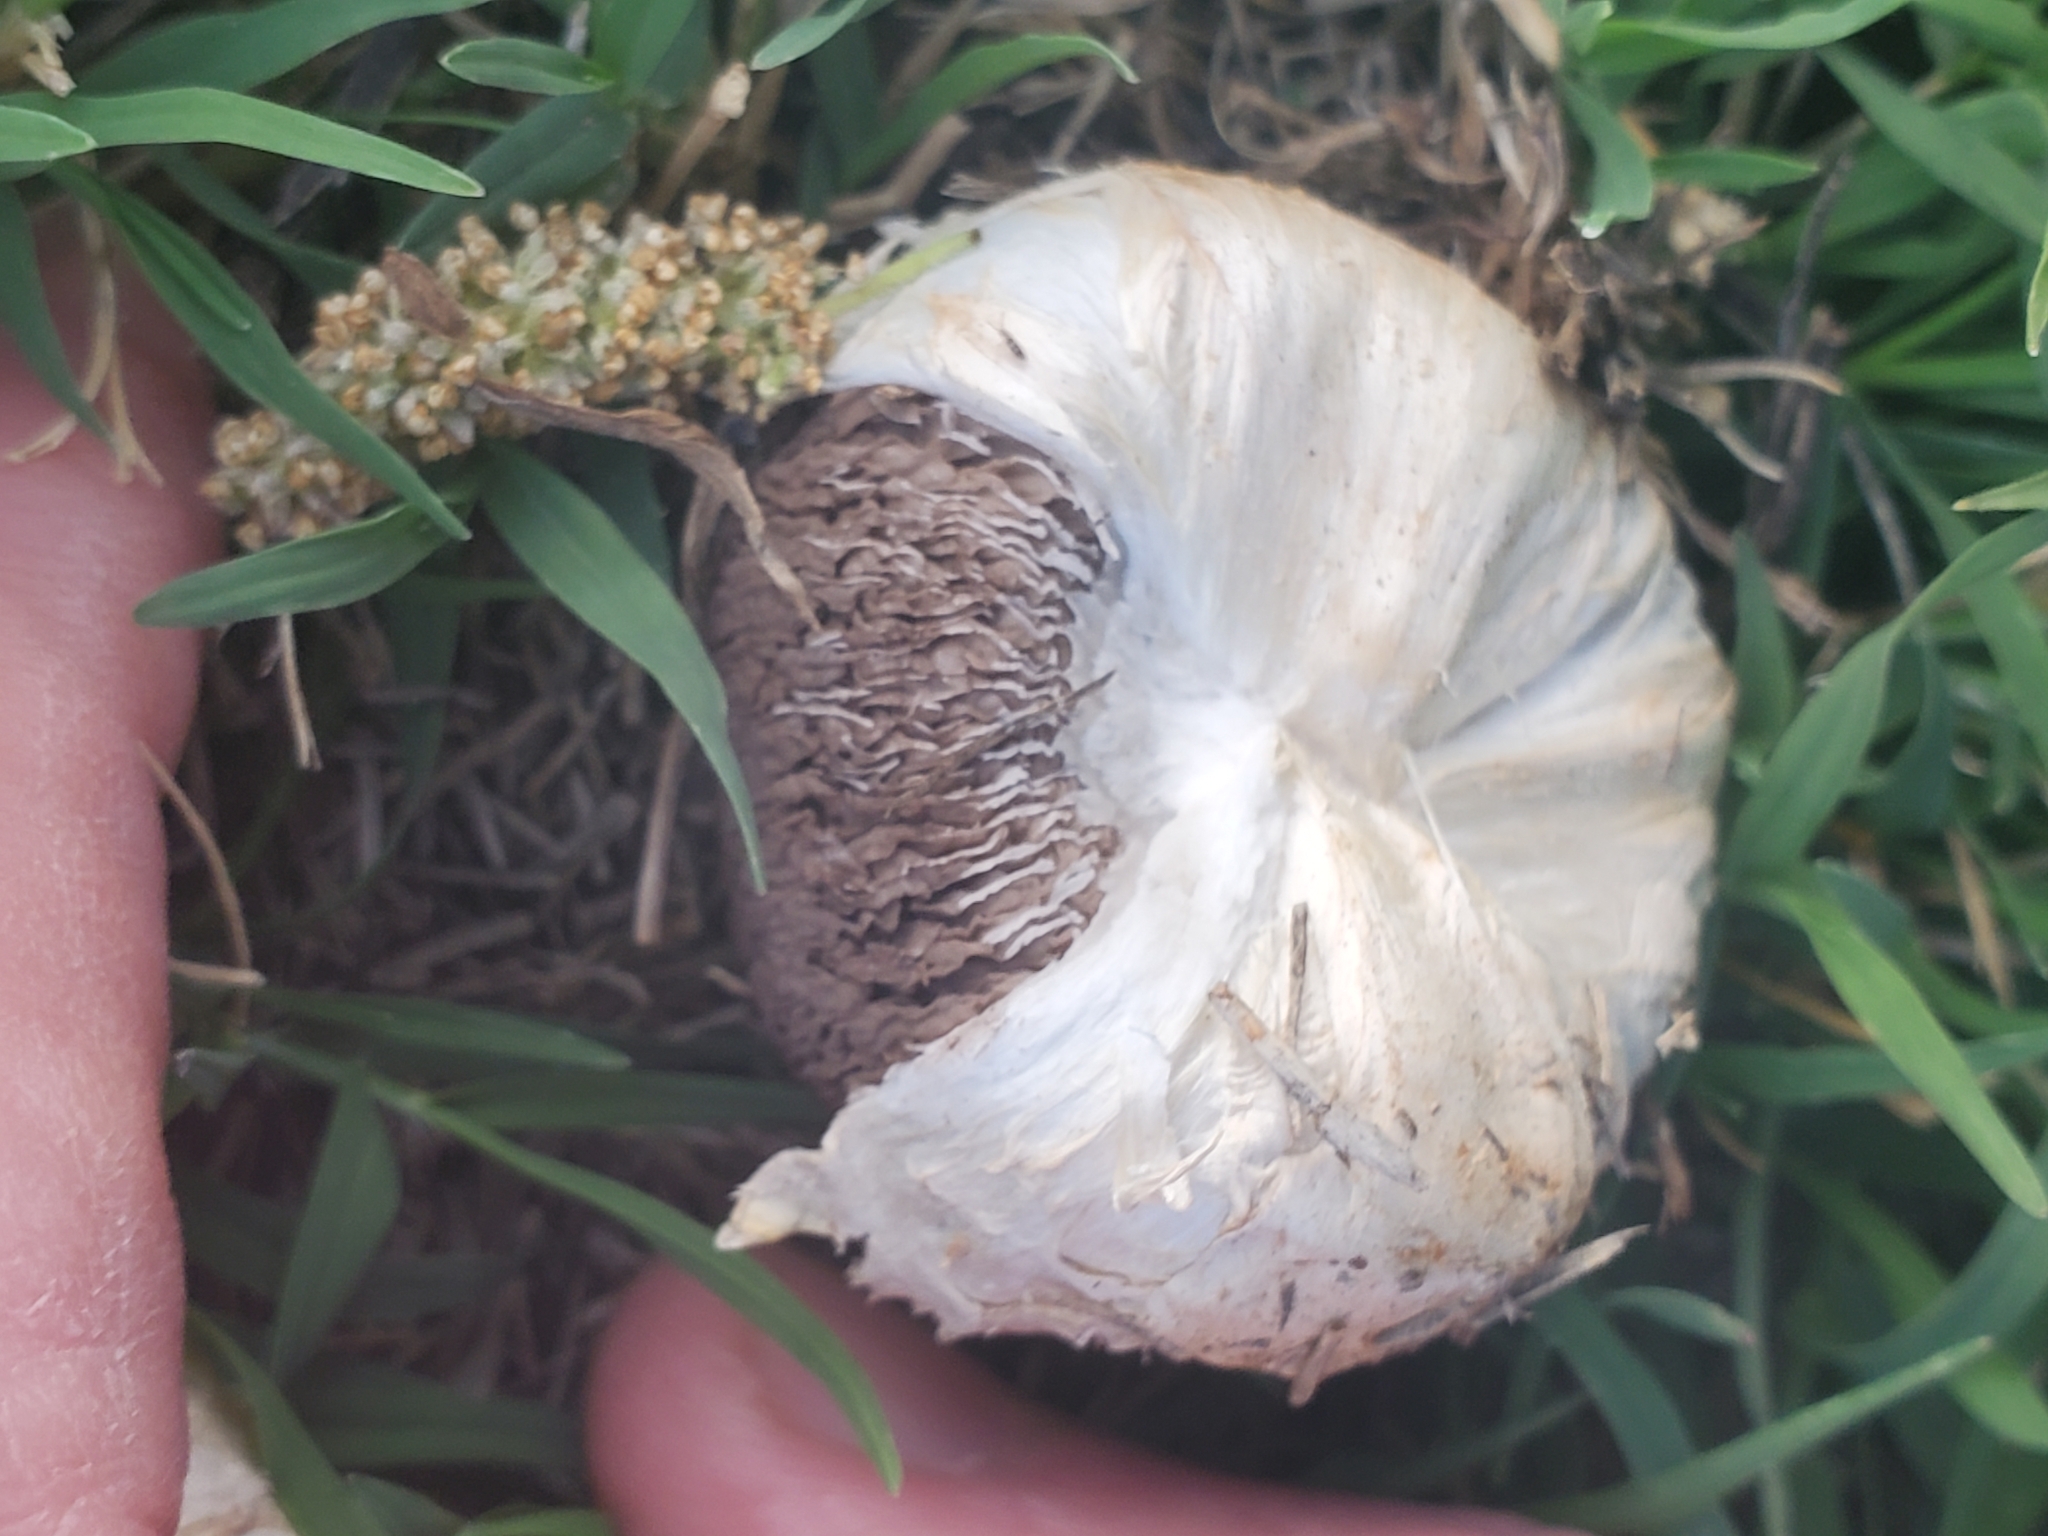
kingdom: Fungi
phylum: Basidiomycota
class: Agaricomycetes
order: Agaricales
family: Agaricaceae
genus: Agaricus
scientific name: Agaricus deserticola
